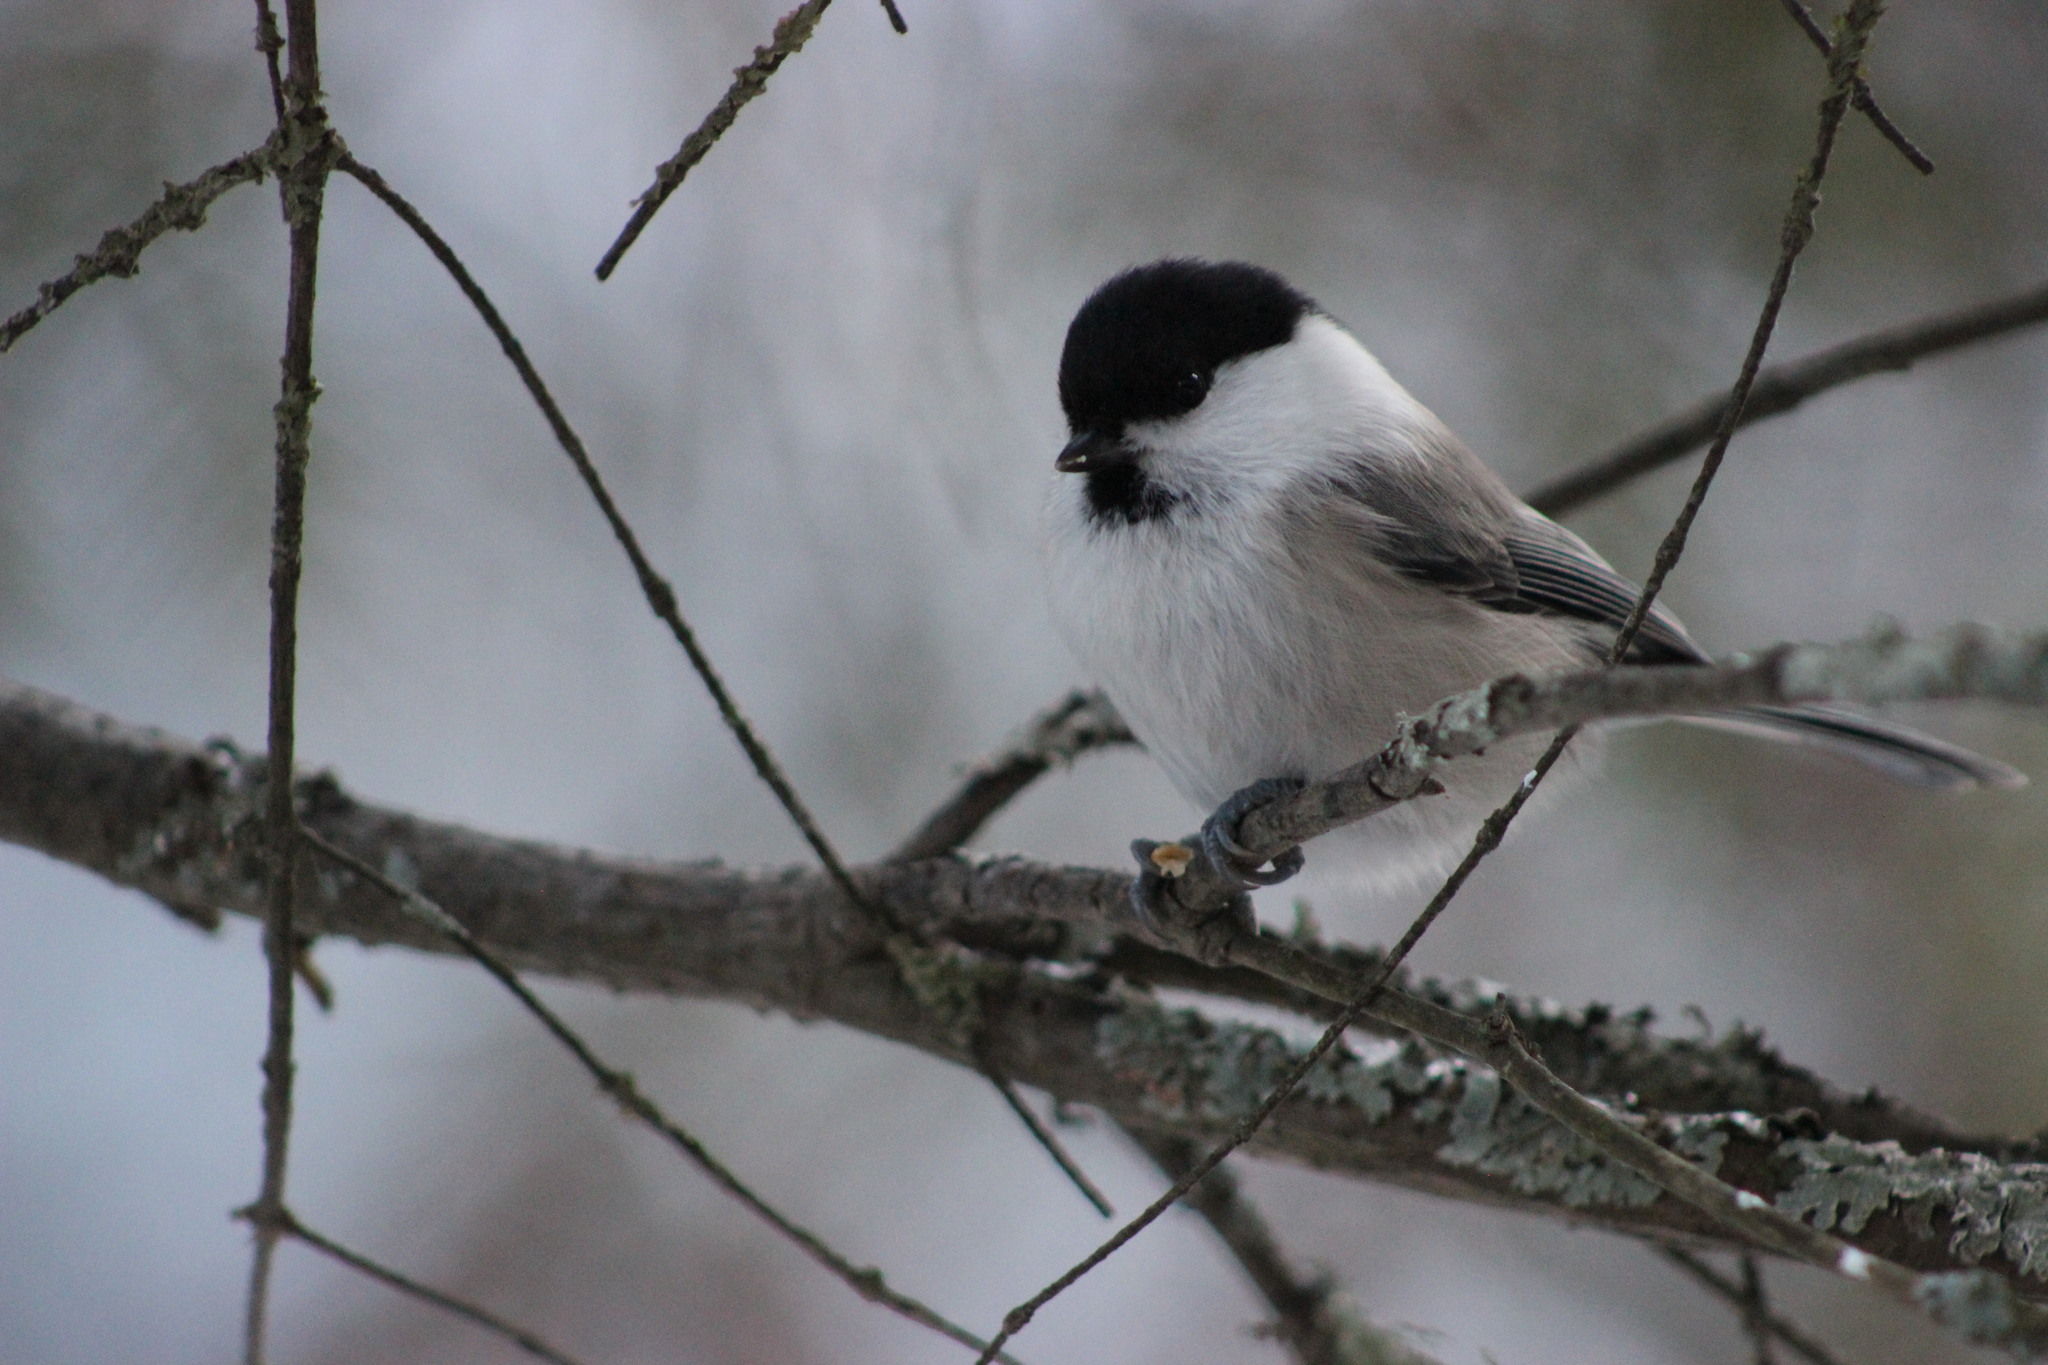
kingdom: Animalia
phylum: Chordata
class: Aves
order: Passeriformes
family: Paridae
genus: Poecile
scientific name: Poecile montanus
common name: Willow tit
